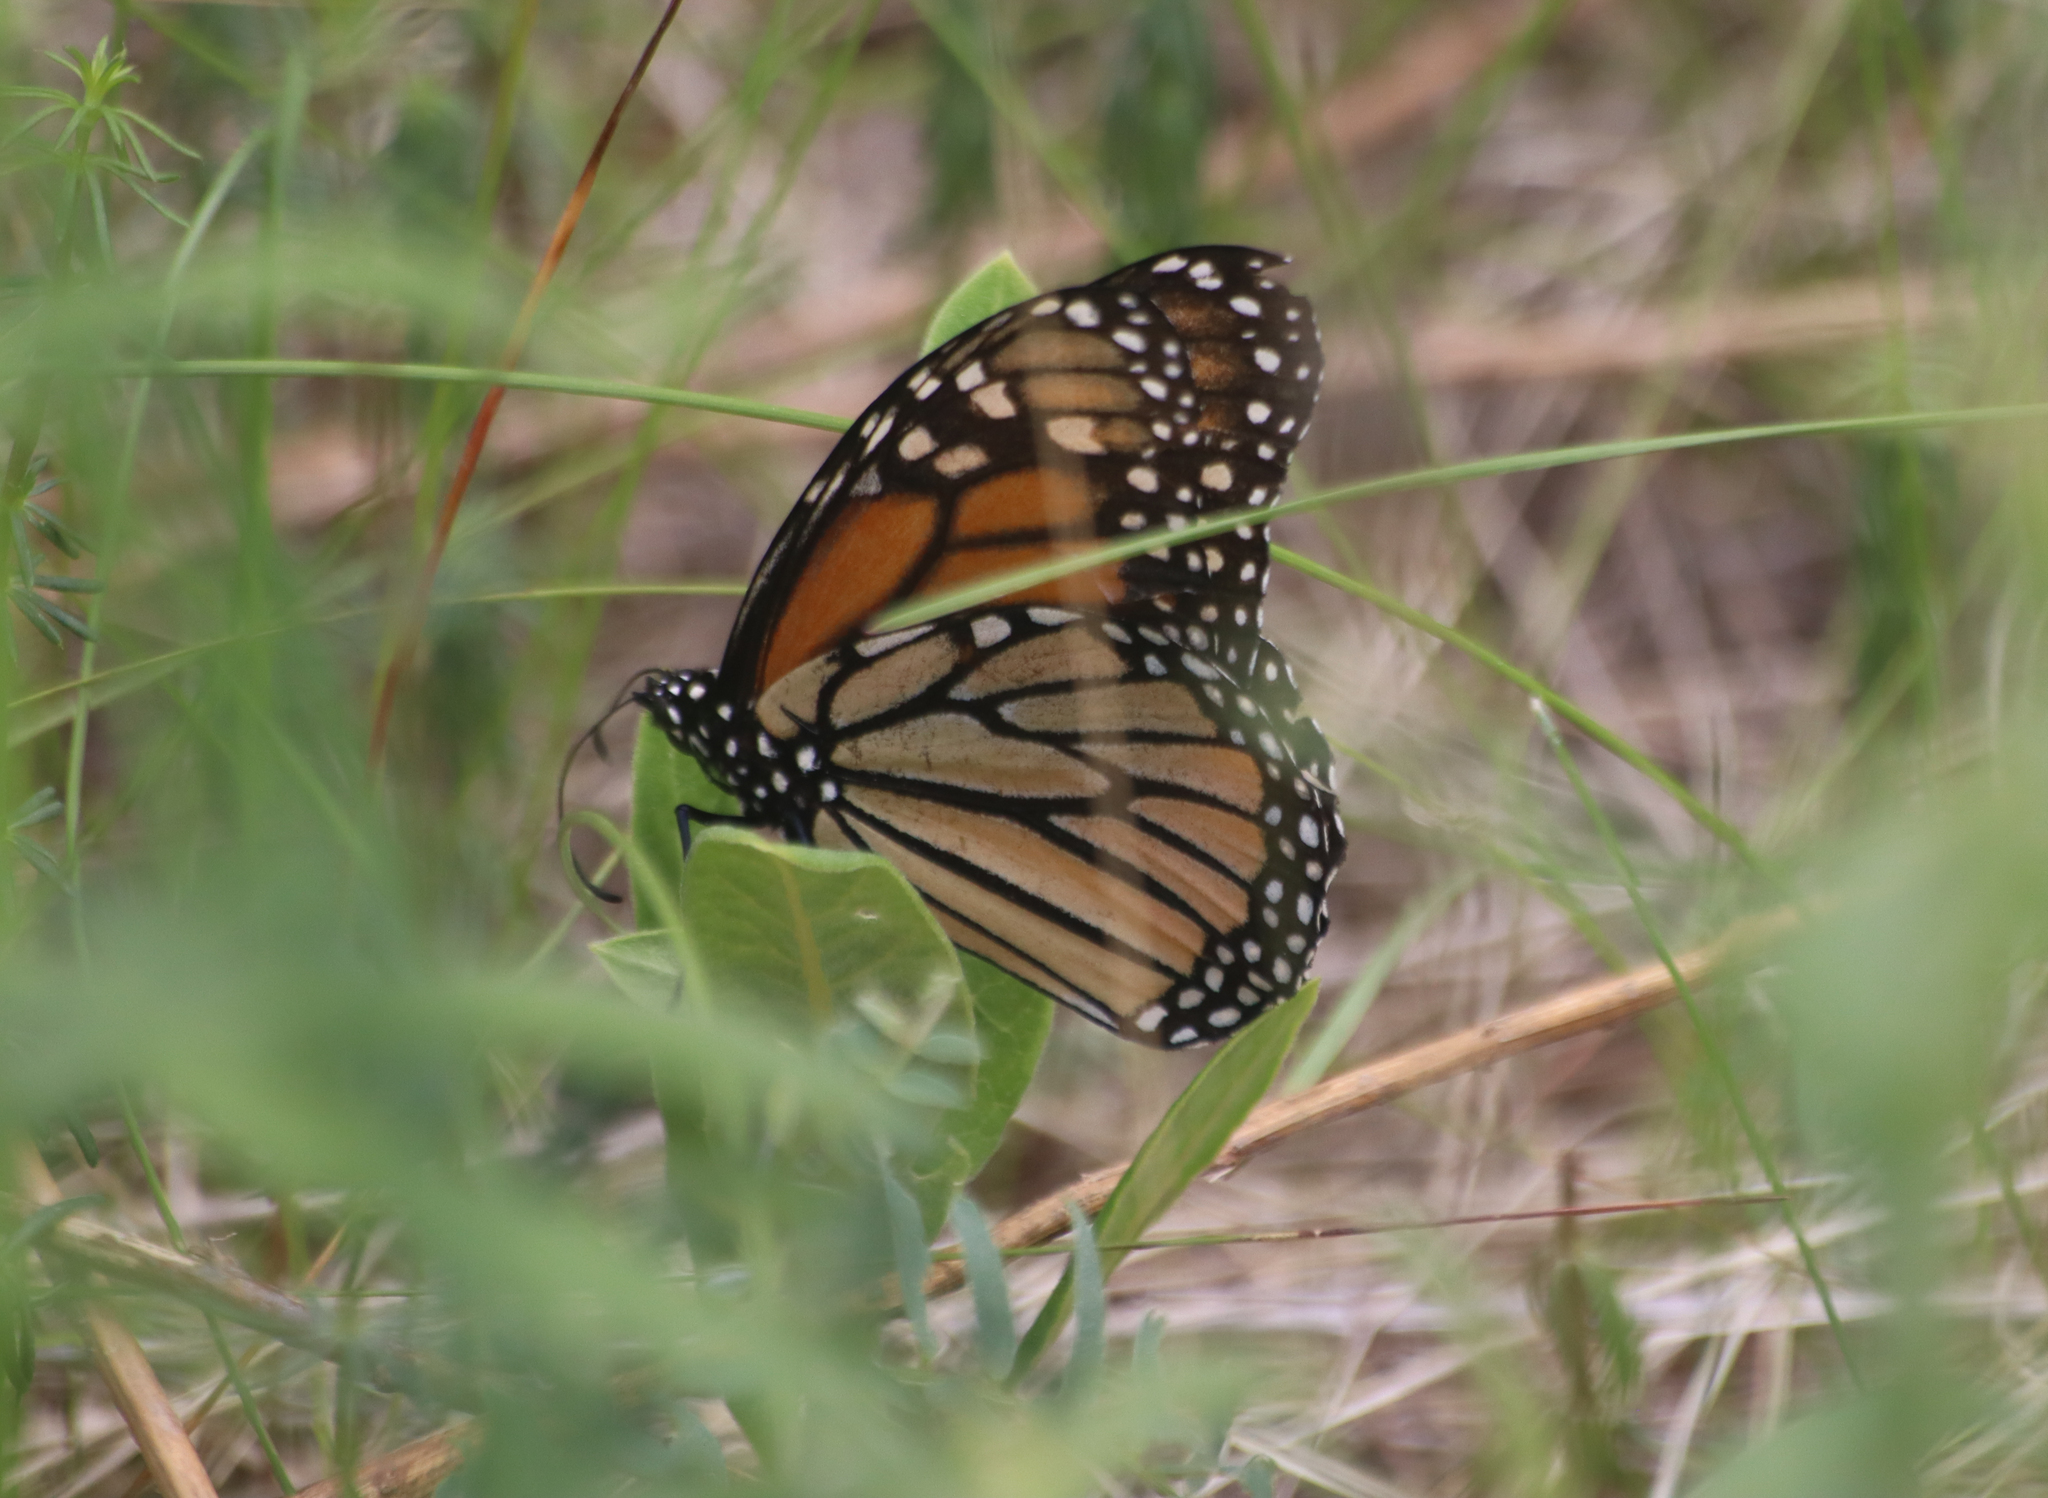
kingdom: Animalia
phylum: Arthropoda
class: Insecta
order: Lepidoptera
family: Nymphalidae
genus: Danaus
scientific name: Danaus plexippus
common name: Monarch
